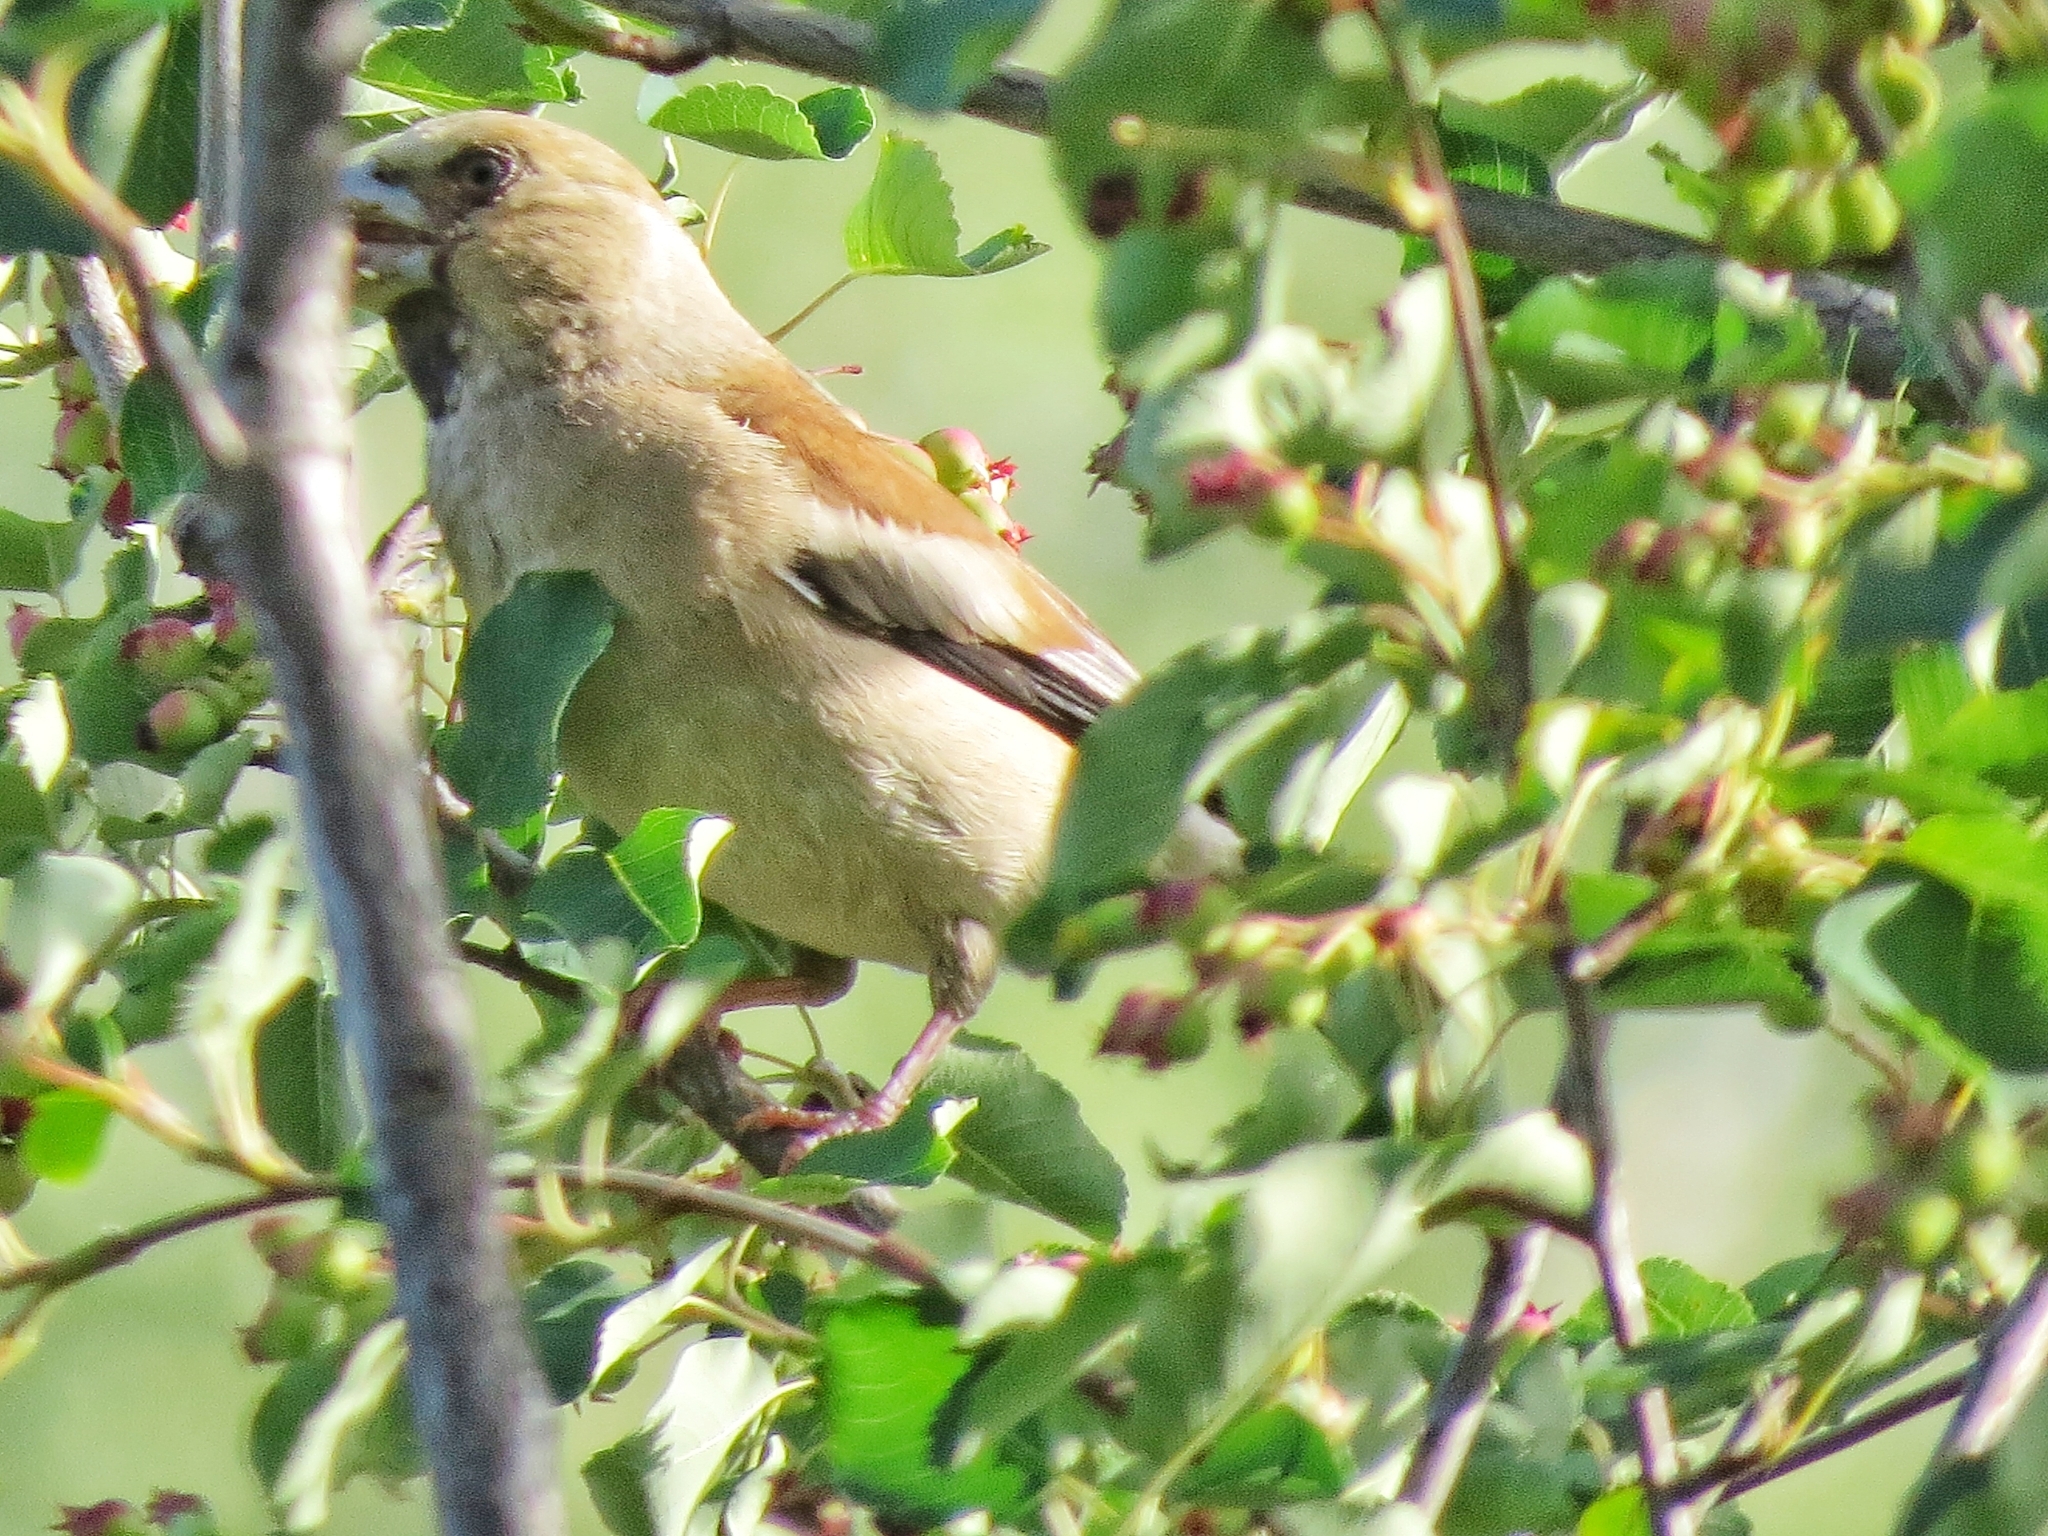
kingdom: Animalia
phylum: Chordata
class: Aves
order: Passeriformes
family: Fringillidae
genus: Coccothraustes
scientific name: Coccothraustes coccothraustes
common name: Hawfinch
